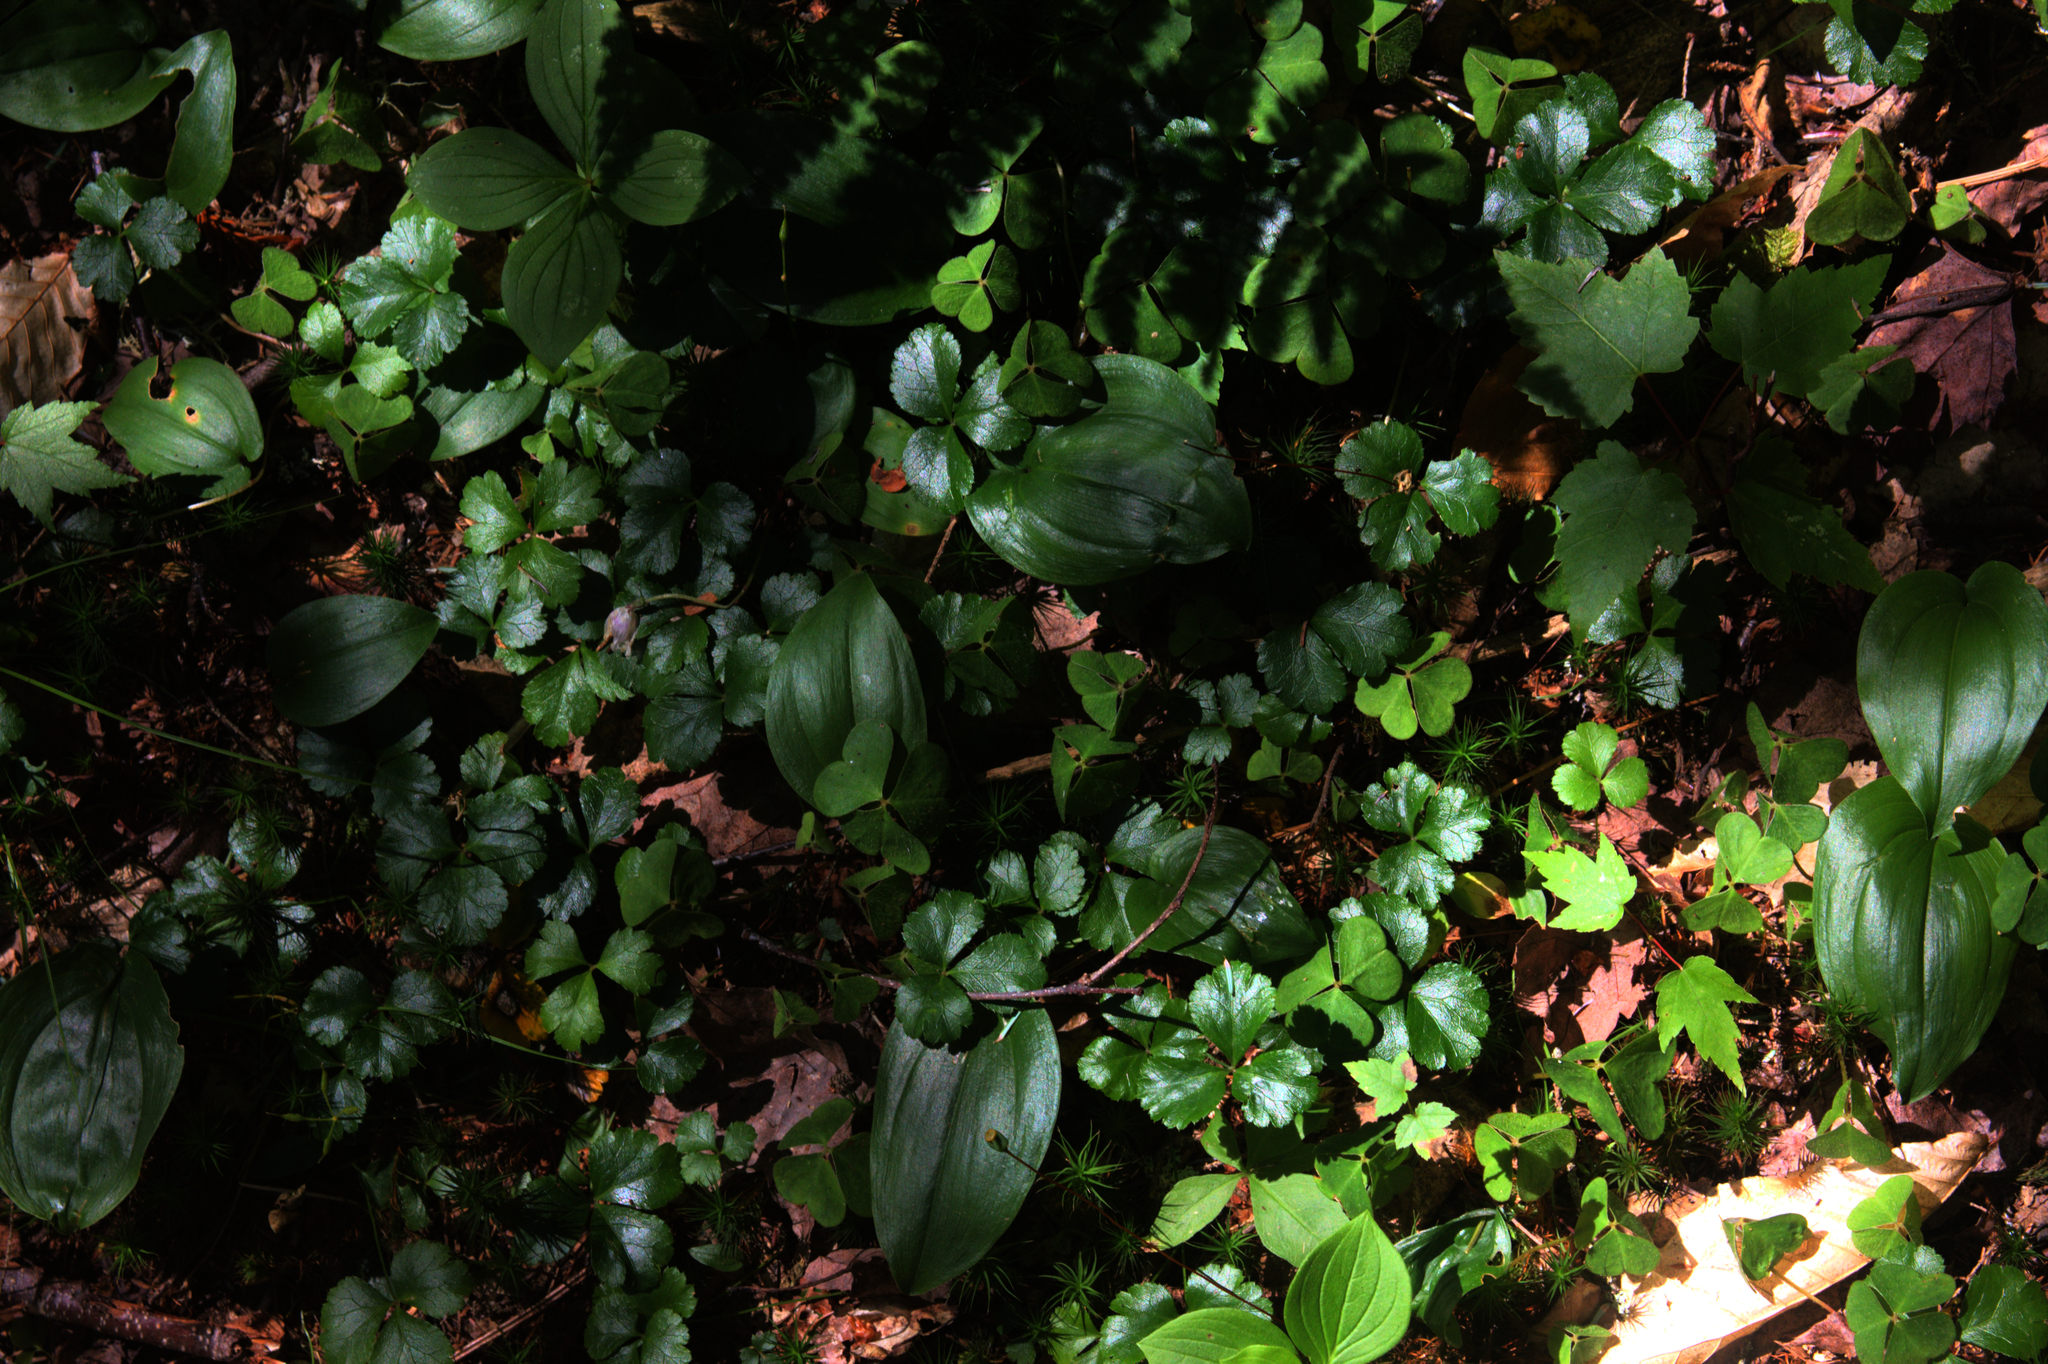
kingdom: Plantae
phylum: Tracheophyta
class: Magnoliopsida
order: Cornales
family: Cornaceae
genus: Cornus
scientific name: Cornus canadensis
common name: Creeping dogwood
